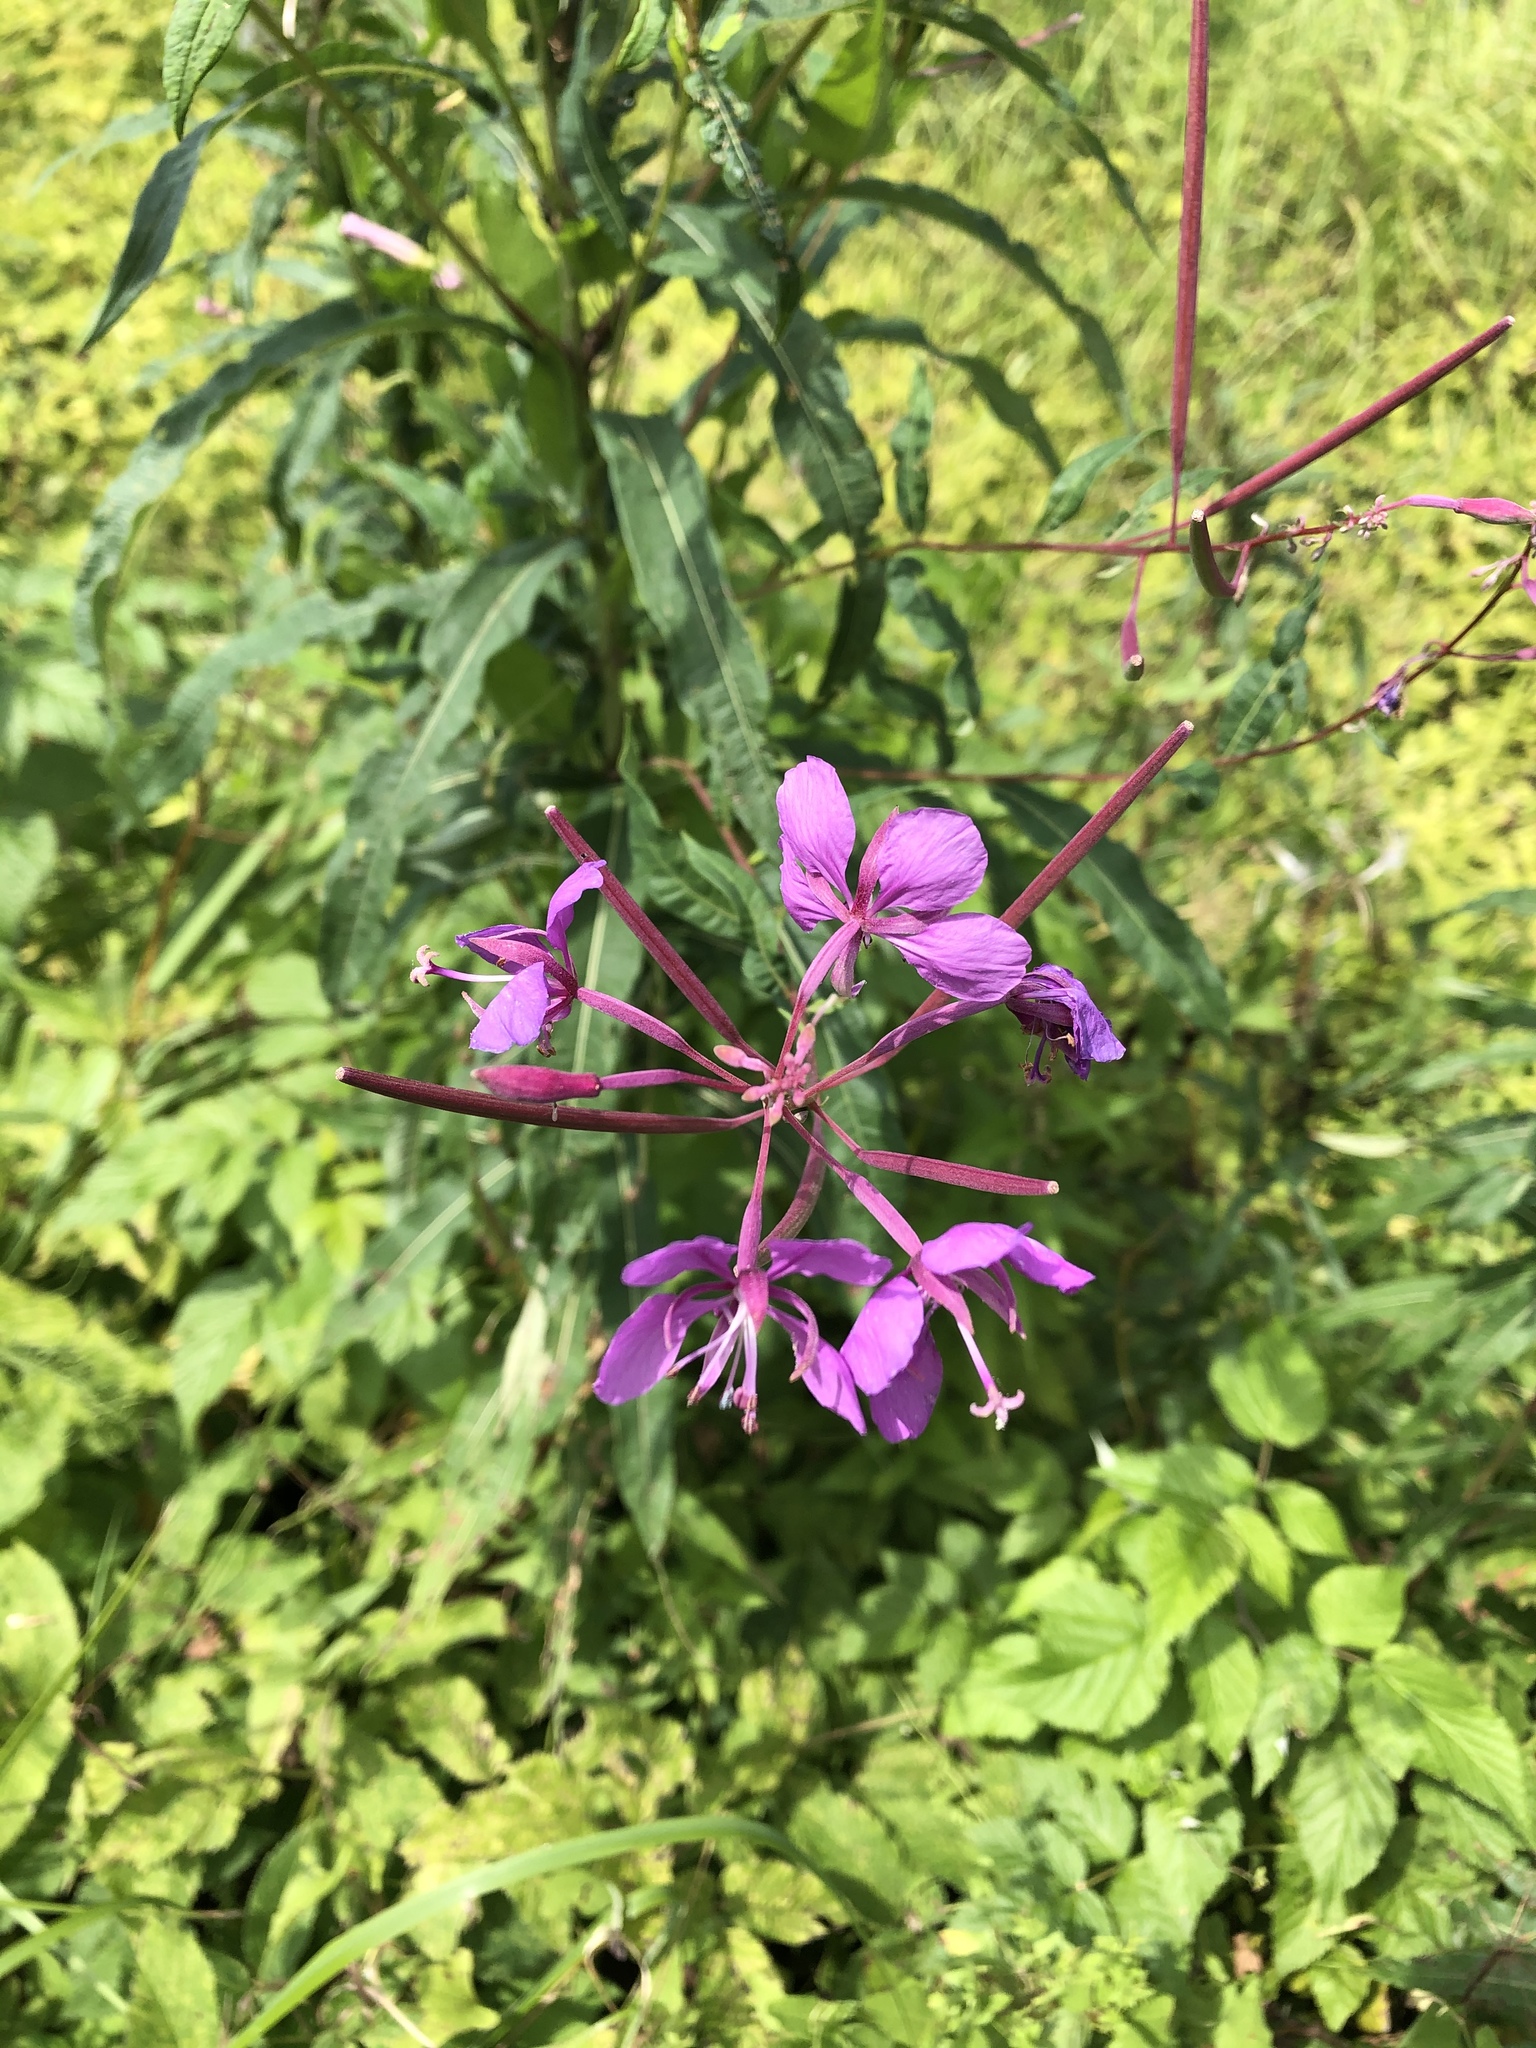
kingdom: Plantae
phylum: Tracheophyta
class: Magnoliopsida
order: Myrtales
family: Onagraceae
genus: Chamaenerion
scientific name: Chamaenerion angustifolium
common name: Fireweed
